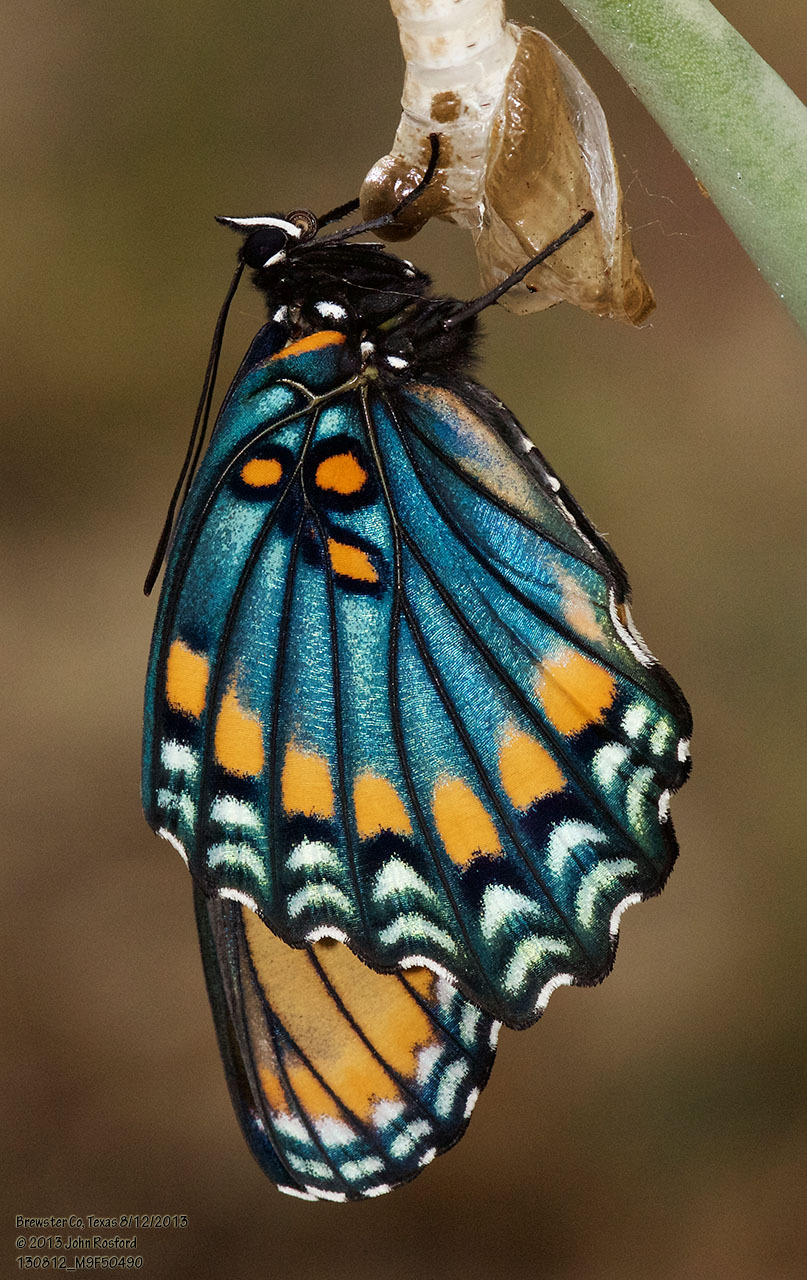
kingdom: Animalia
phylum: Arthropoda
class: Insecta
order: Lepidoptera
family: Nymphalidae
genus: Limenitis
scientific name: Limenitis arthemis
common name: Red-spotted admiral
